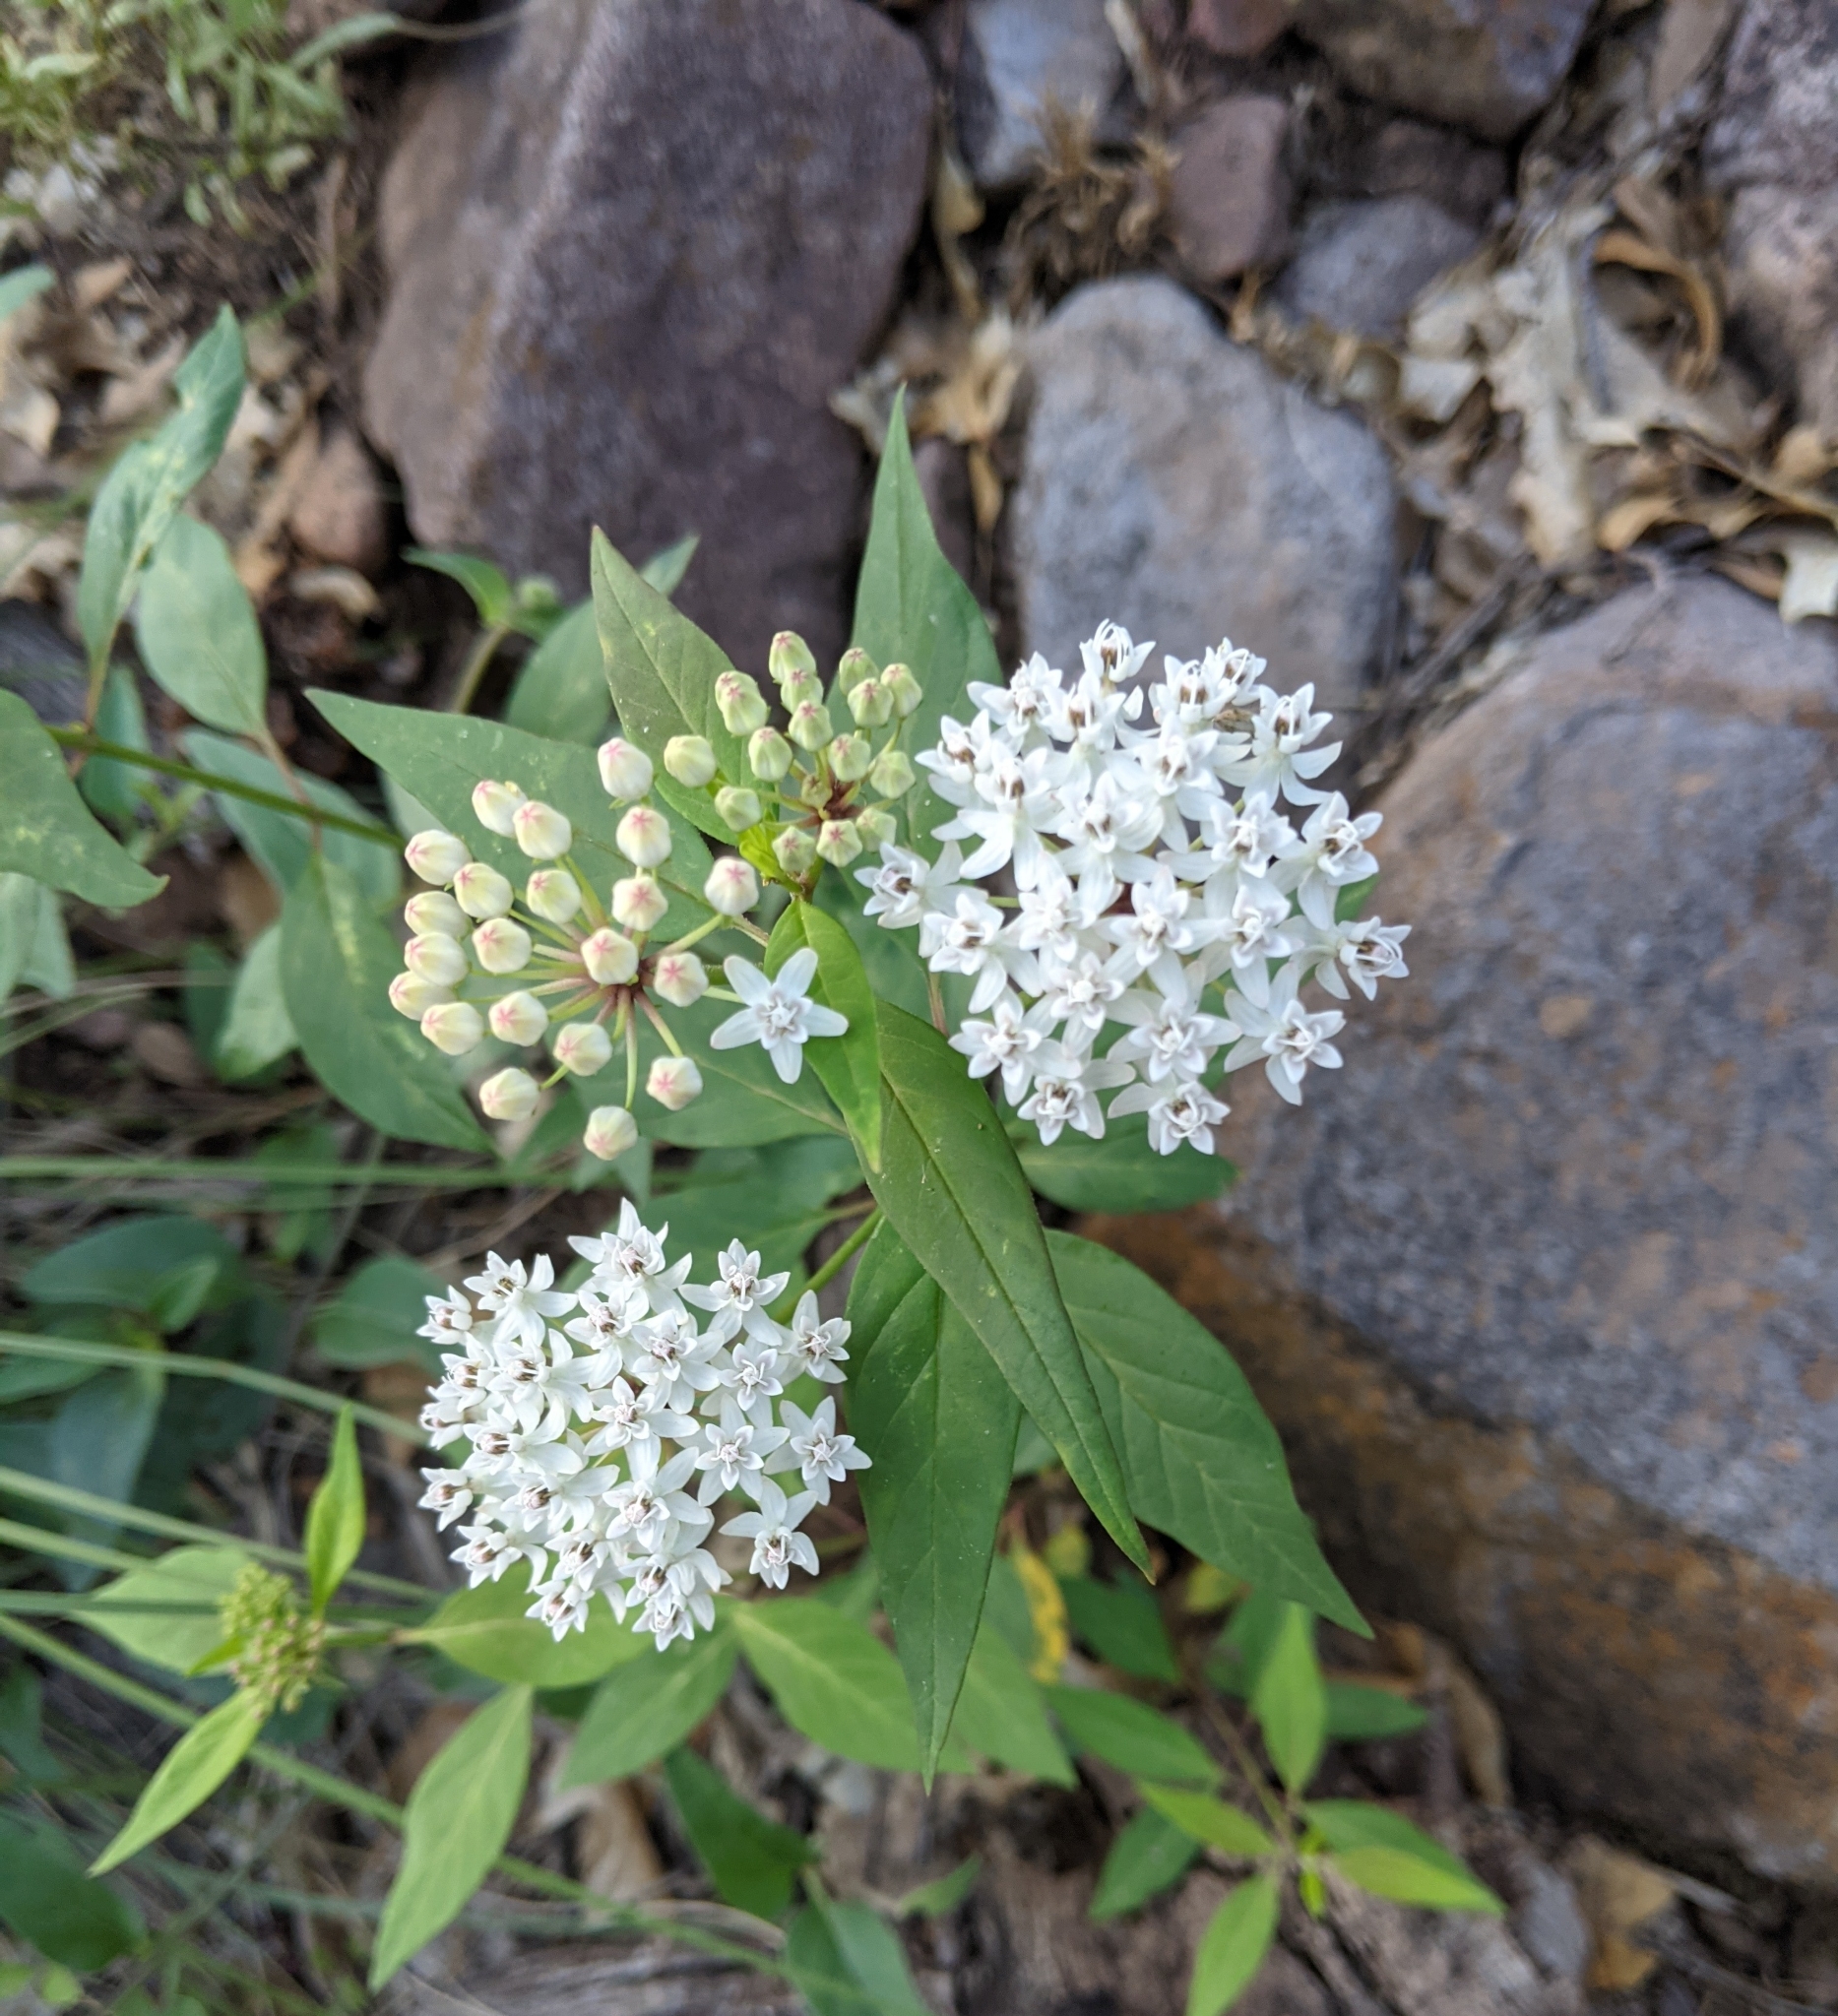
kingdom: Plantae
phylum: Tracheophyta
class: Magnoliopsida
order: Gentianales
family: Apocynaceae
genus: Asclepias
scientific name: Asclepias texana
